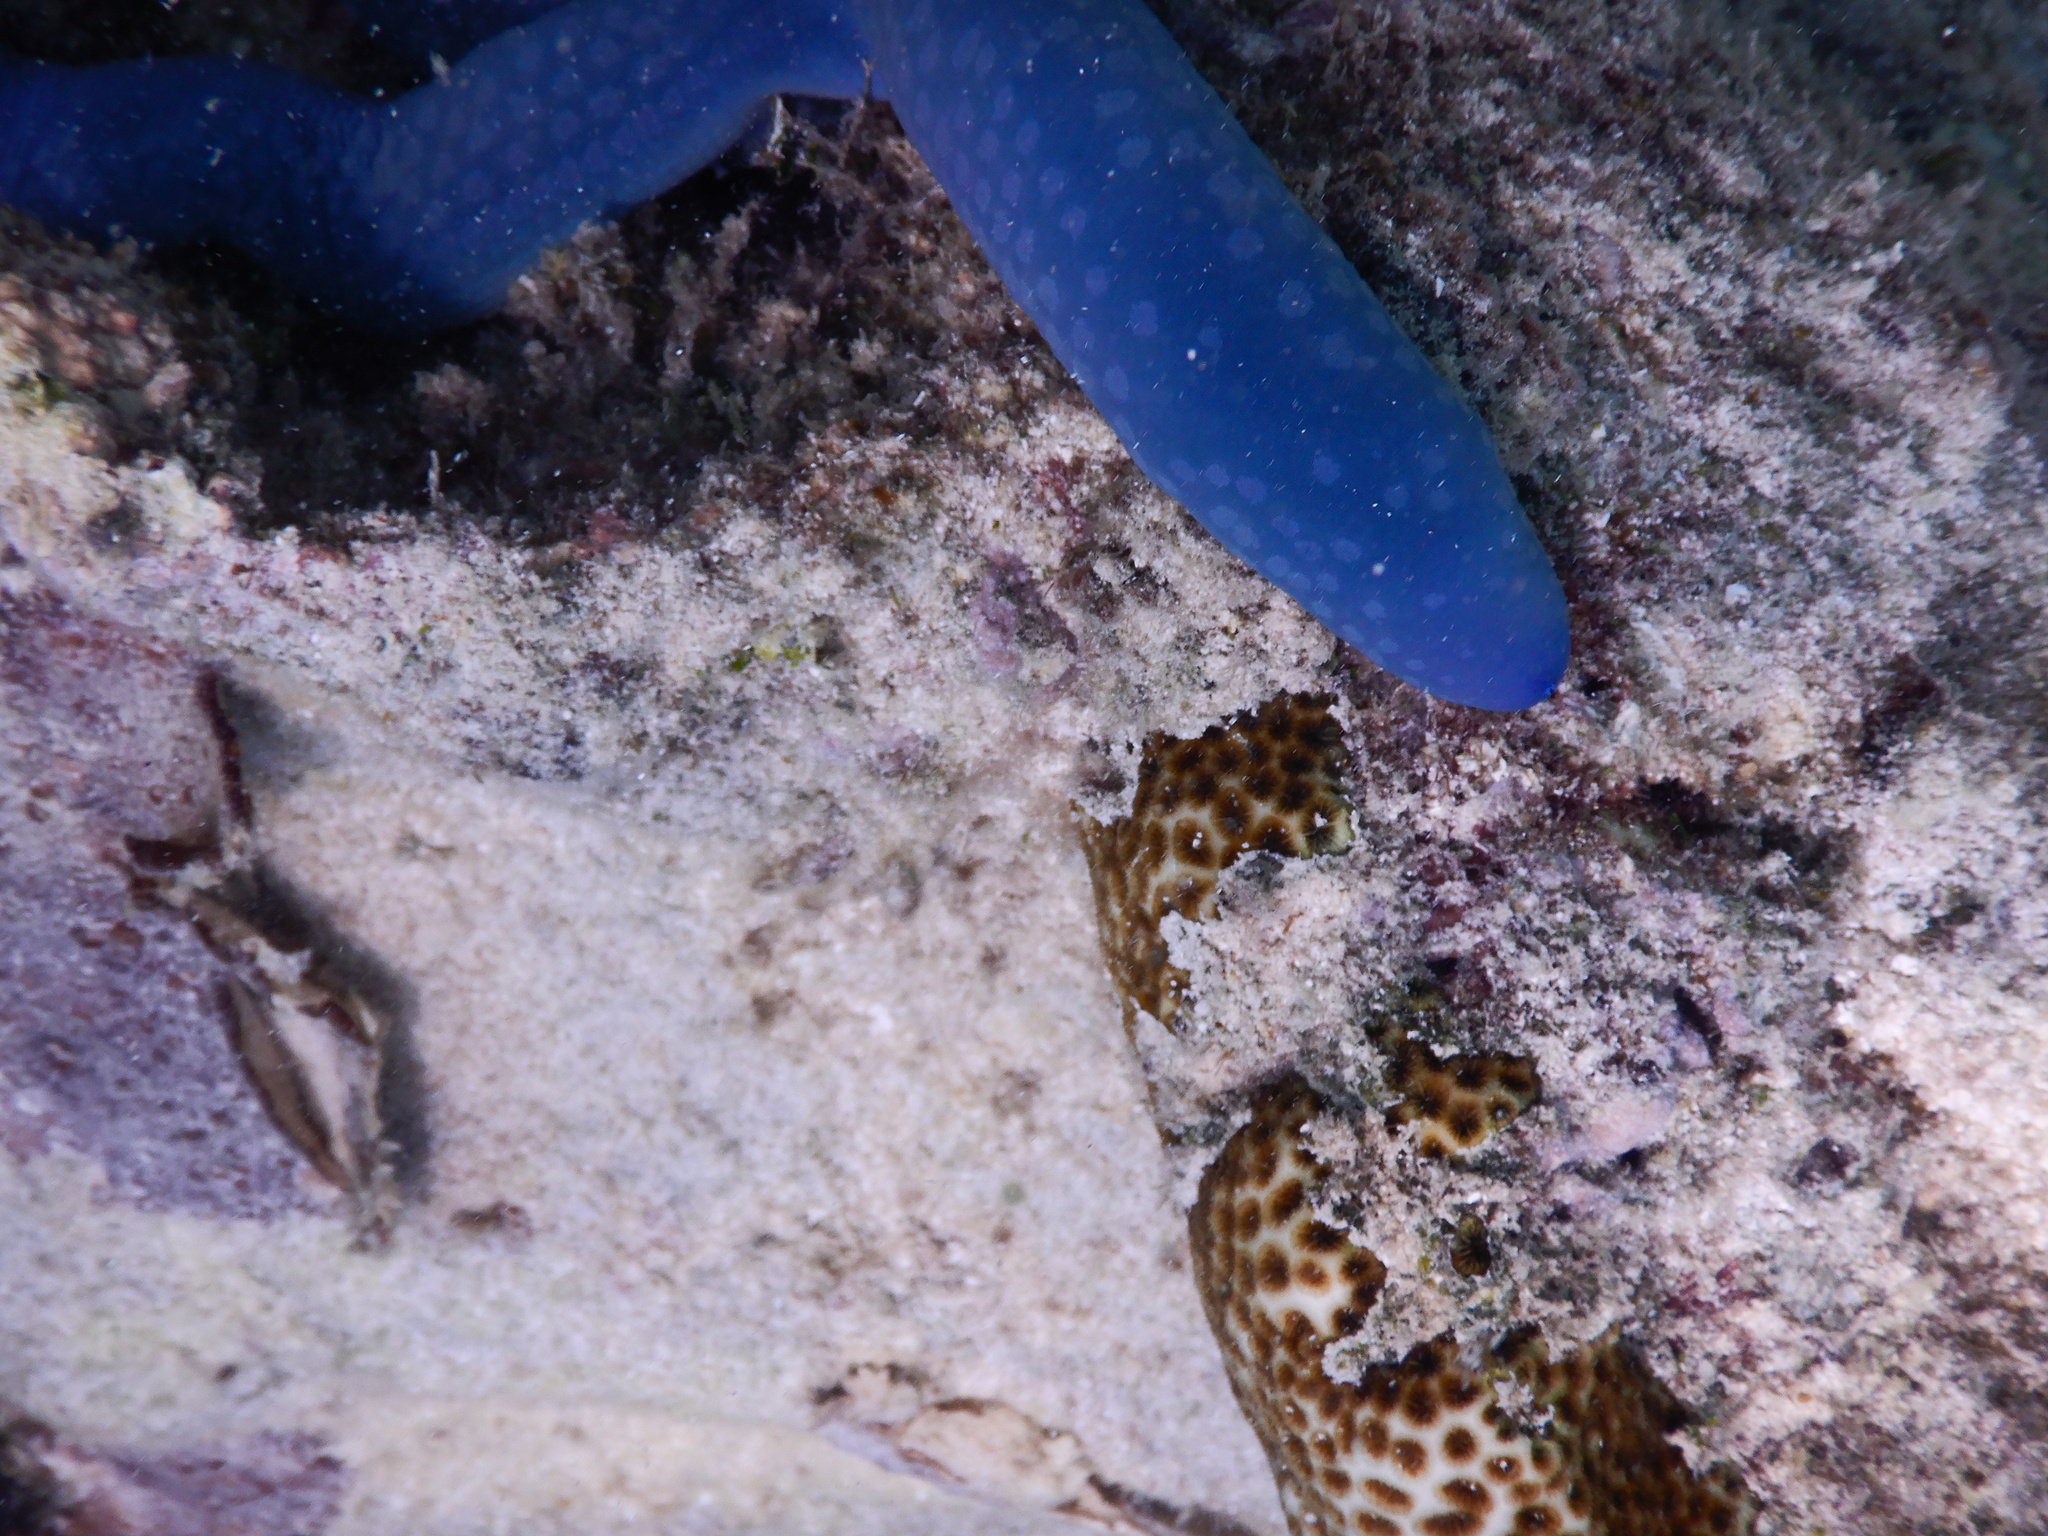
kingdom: Animalia
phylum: Echinodermata
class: Asteroidea
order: Valvatida
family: Ophidiasteridae
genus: Linckia
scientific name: Linckia laevigata
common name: Azure sea star
